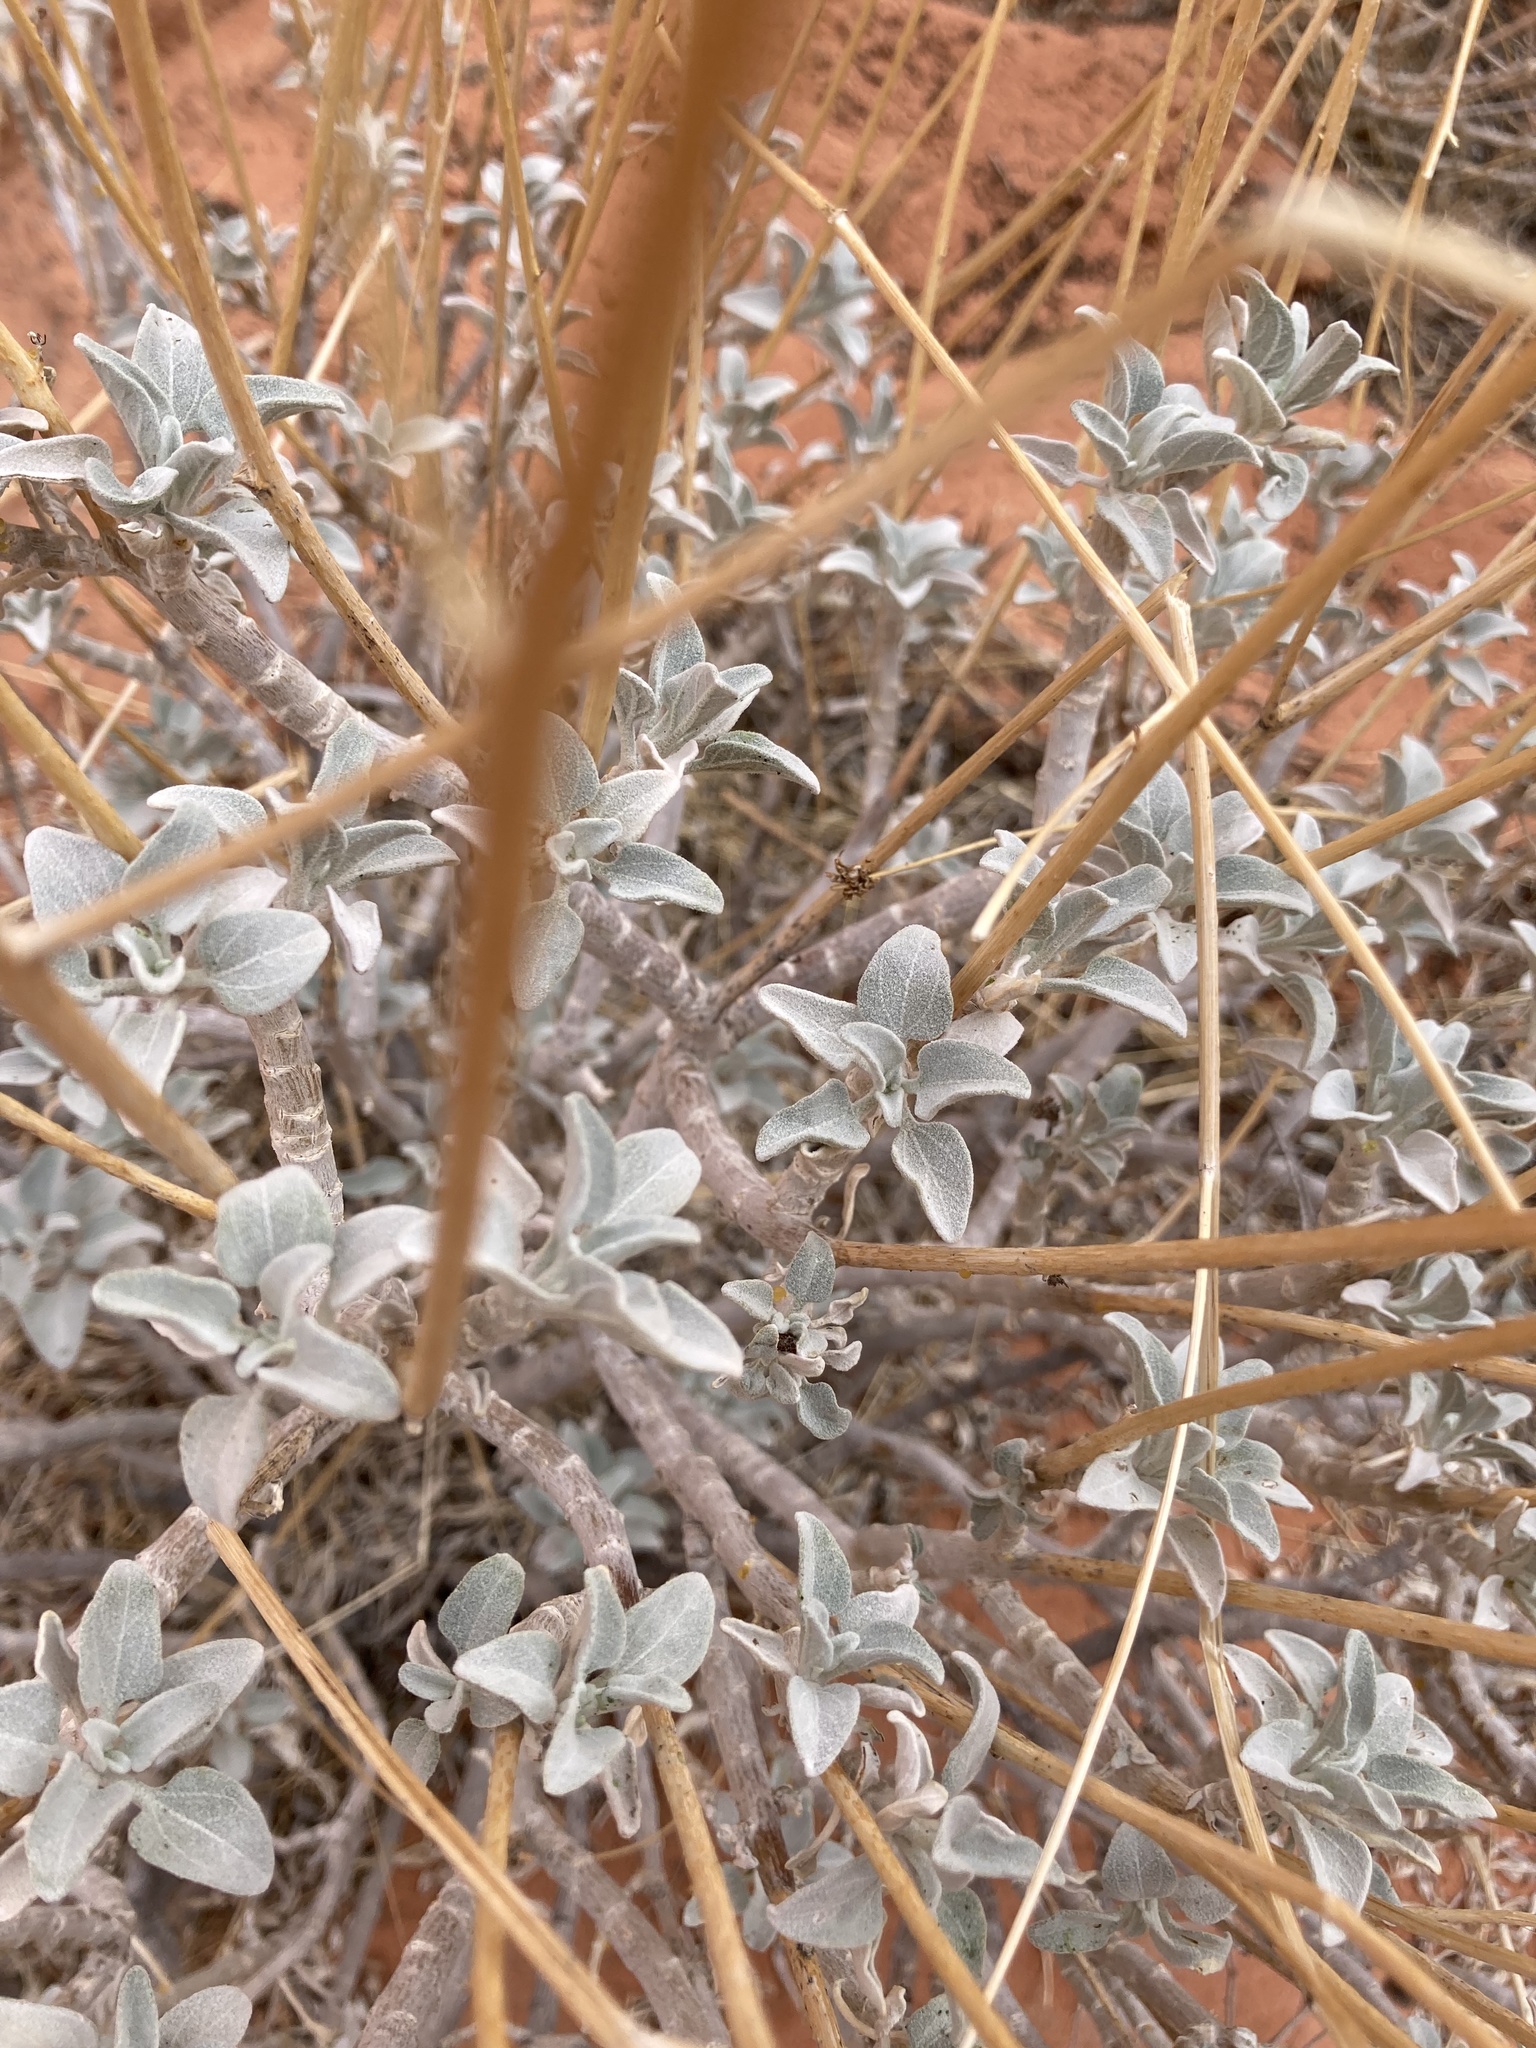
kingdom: Plantae
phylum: Tracheophyta
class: Magnoliopsida
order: Asterales
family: Asteraceae
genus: Encelia
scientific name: Encelia farinosa
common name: Brittlebush
